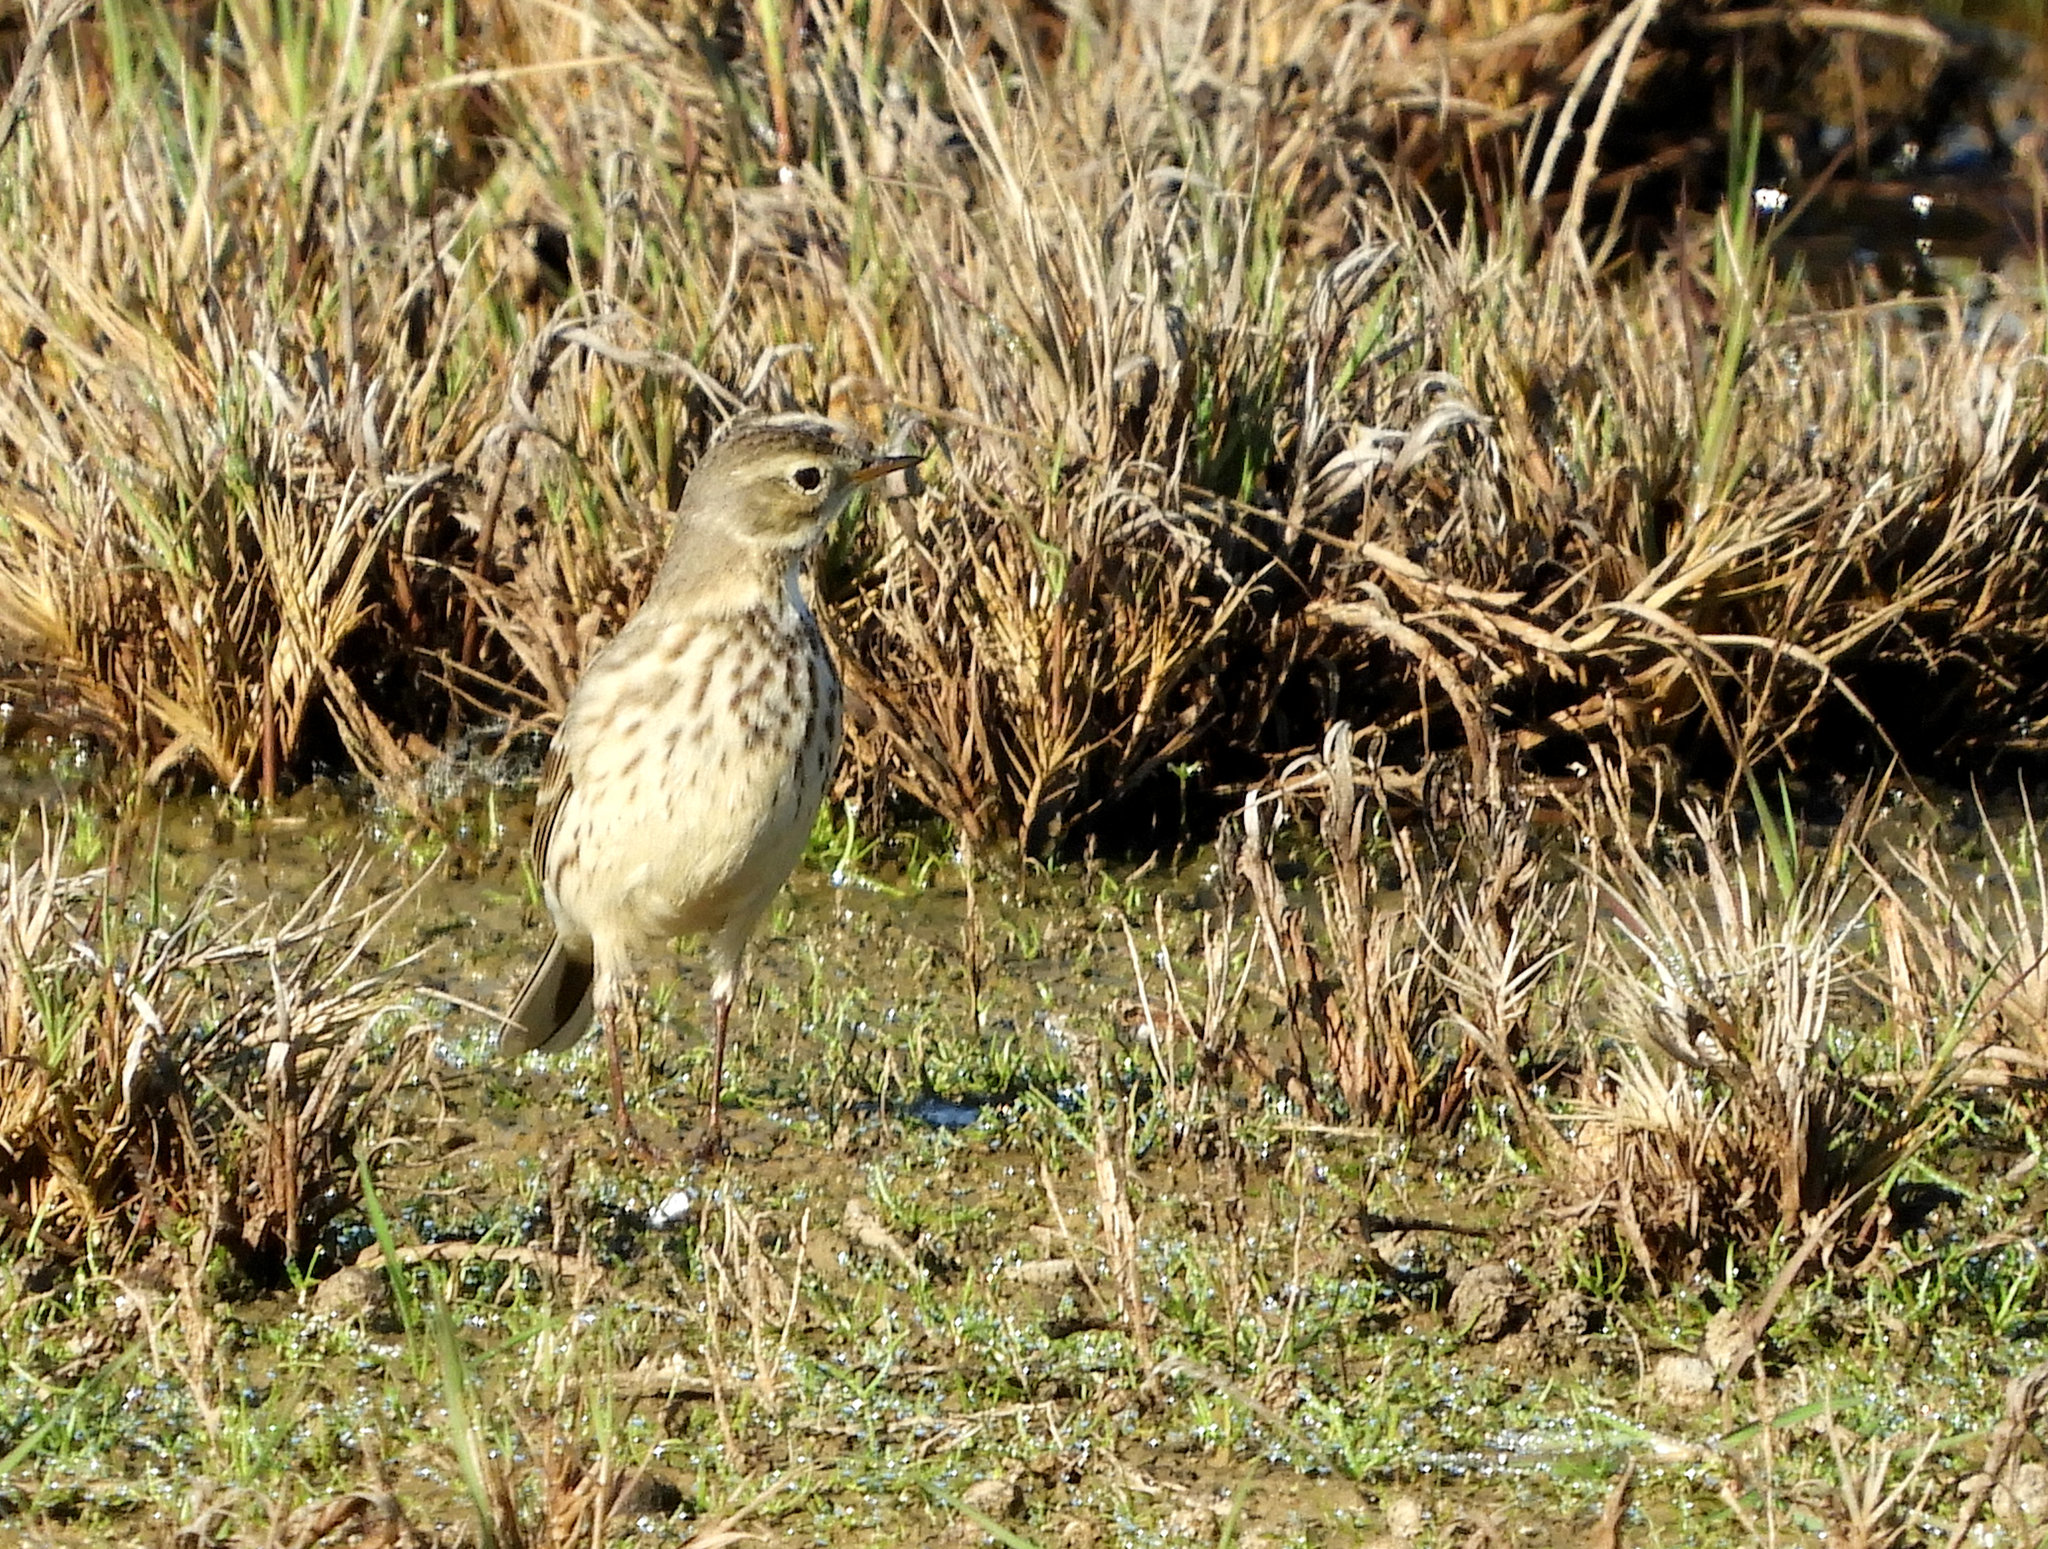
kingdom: Animalia
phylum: Chordata
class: Aves
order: Passeriformes
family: Motacillidae
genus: Anthus
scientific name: Anthus rubescens
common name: Buff-bellied pipit
